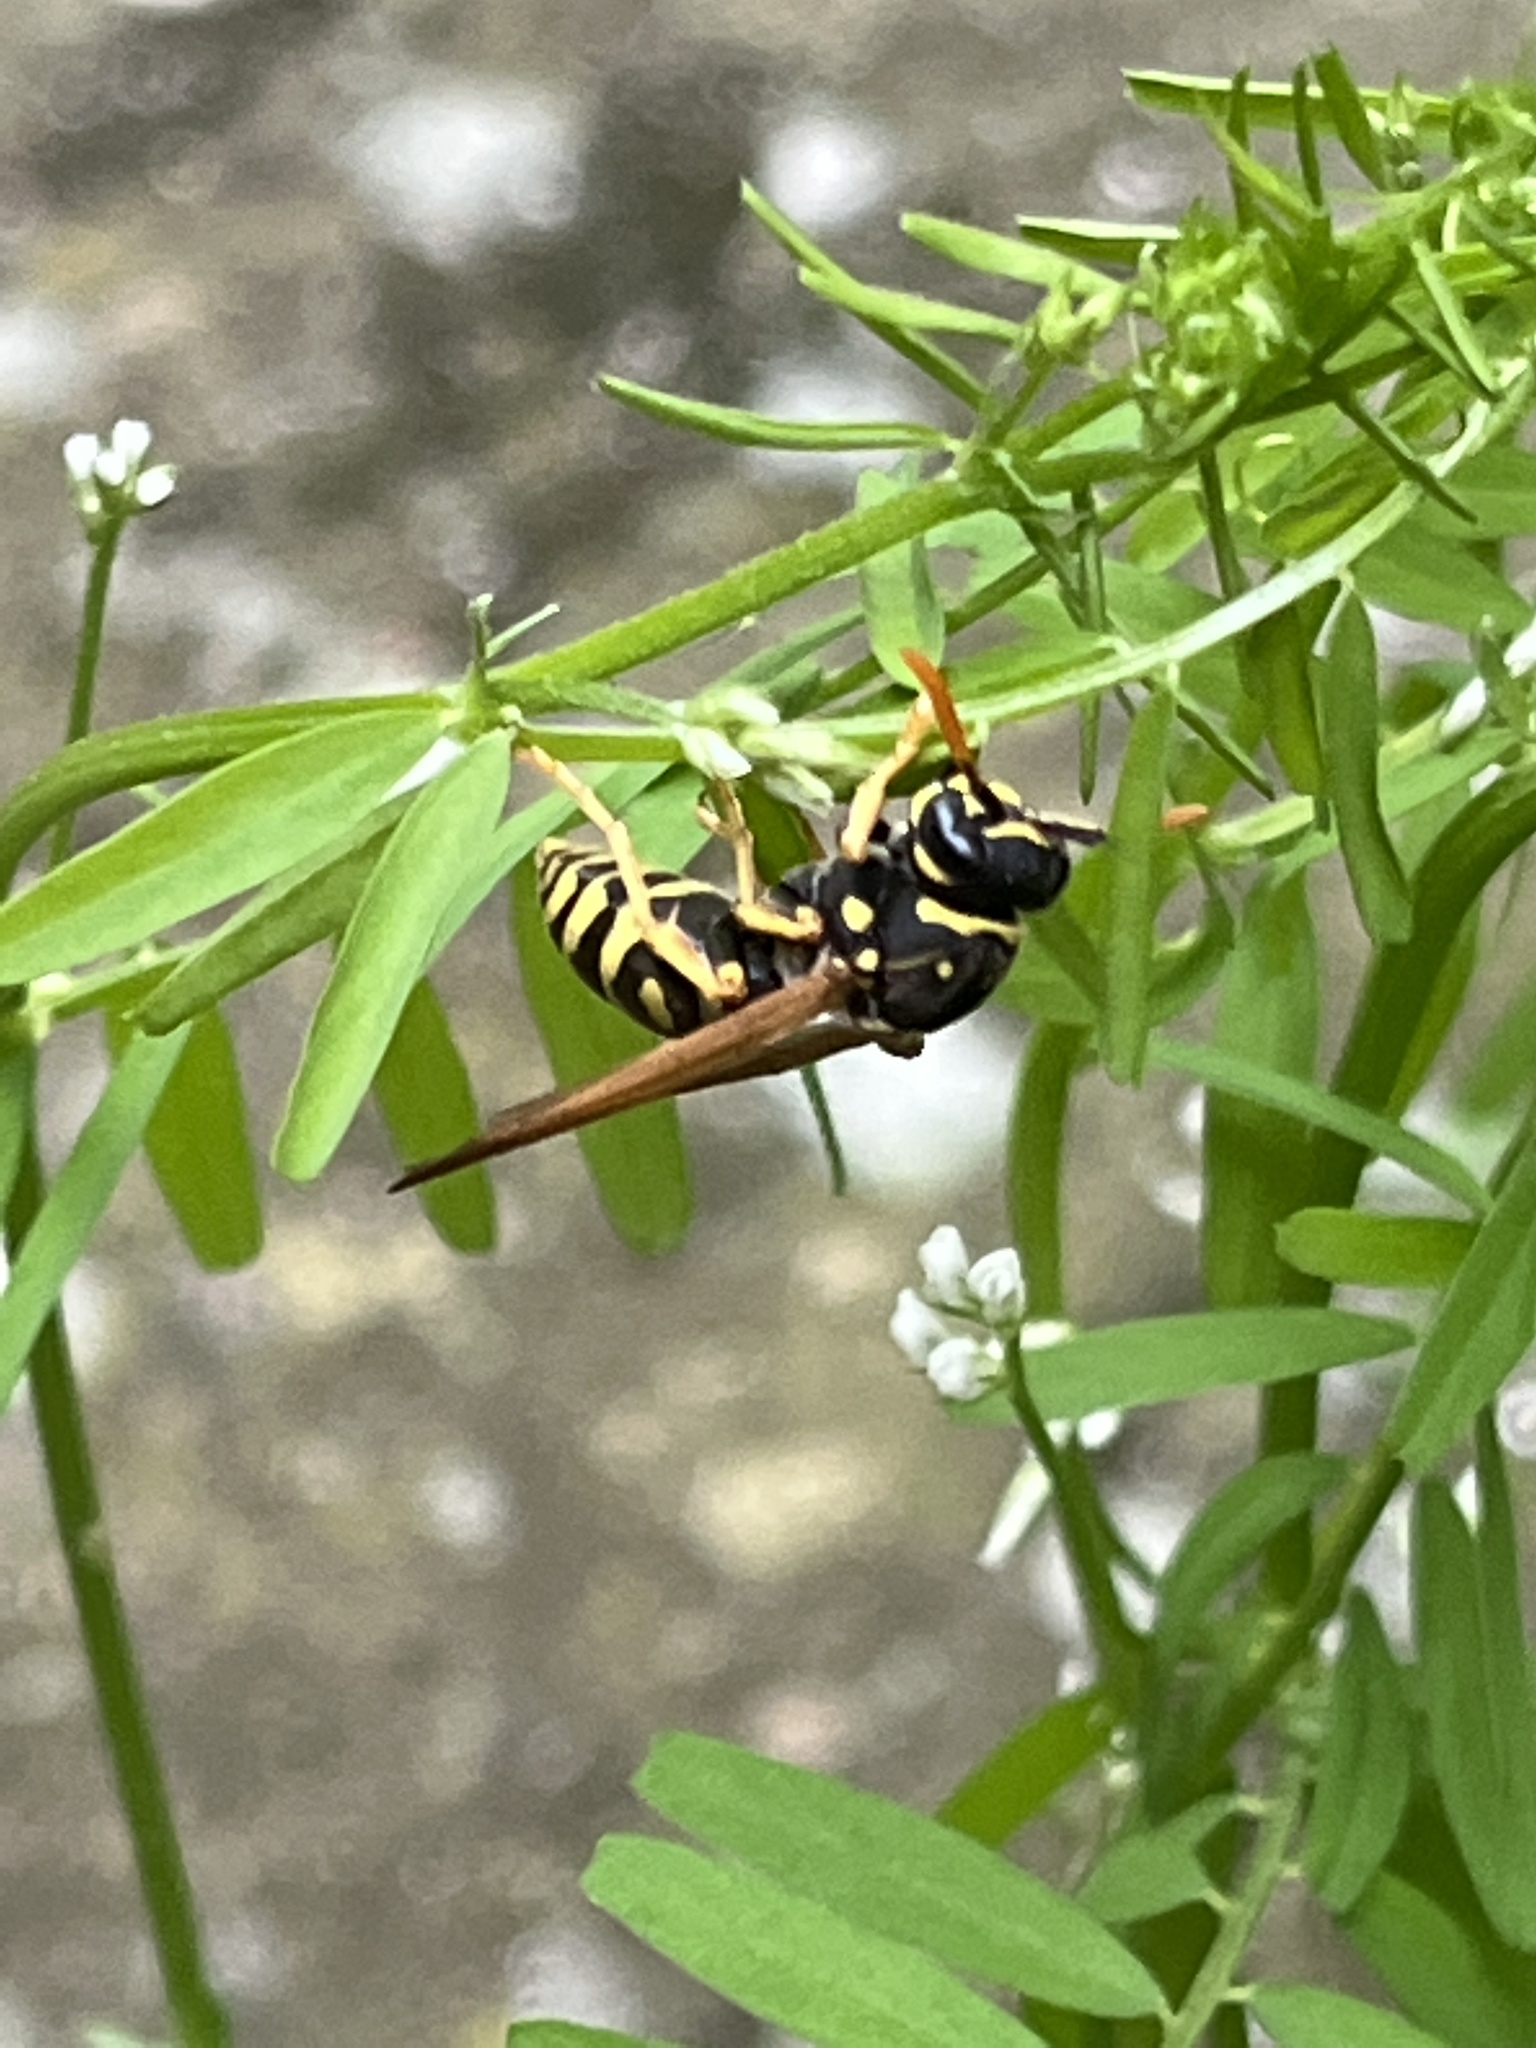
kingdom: Animalia
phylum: Arthropoda
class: Insecta
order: Hymenoptera
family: Eumenidae
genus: Polistes
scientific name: Polistes dominula
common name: Paper wasp
